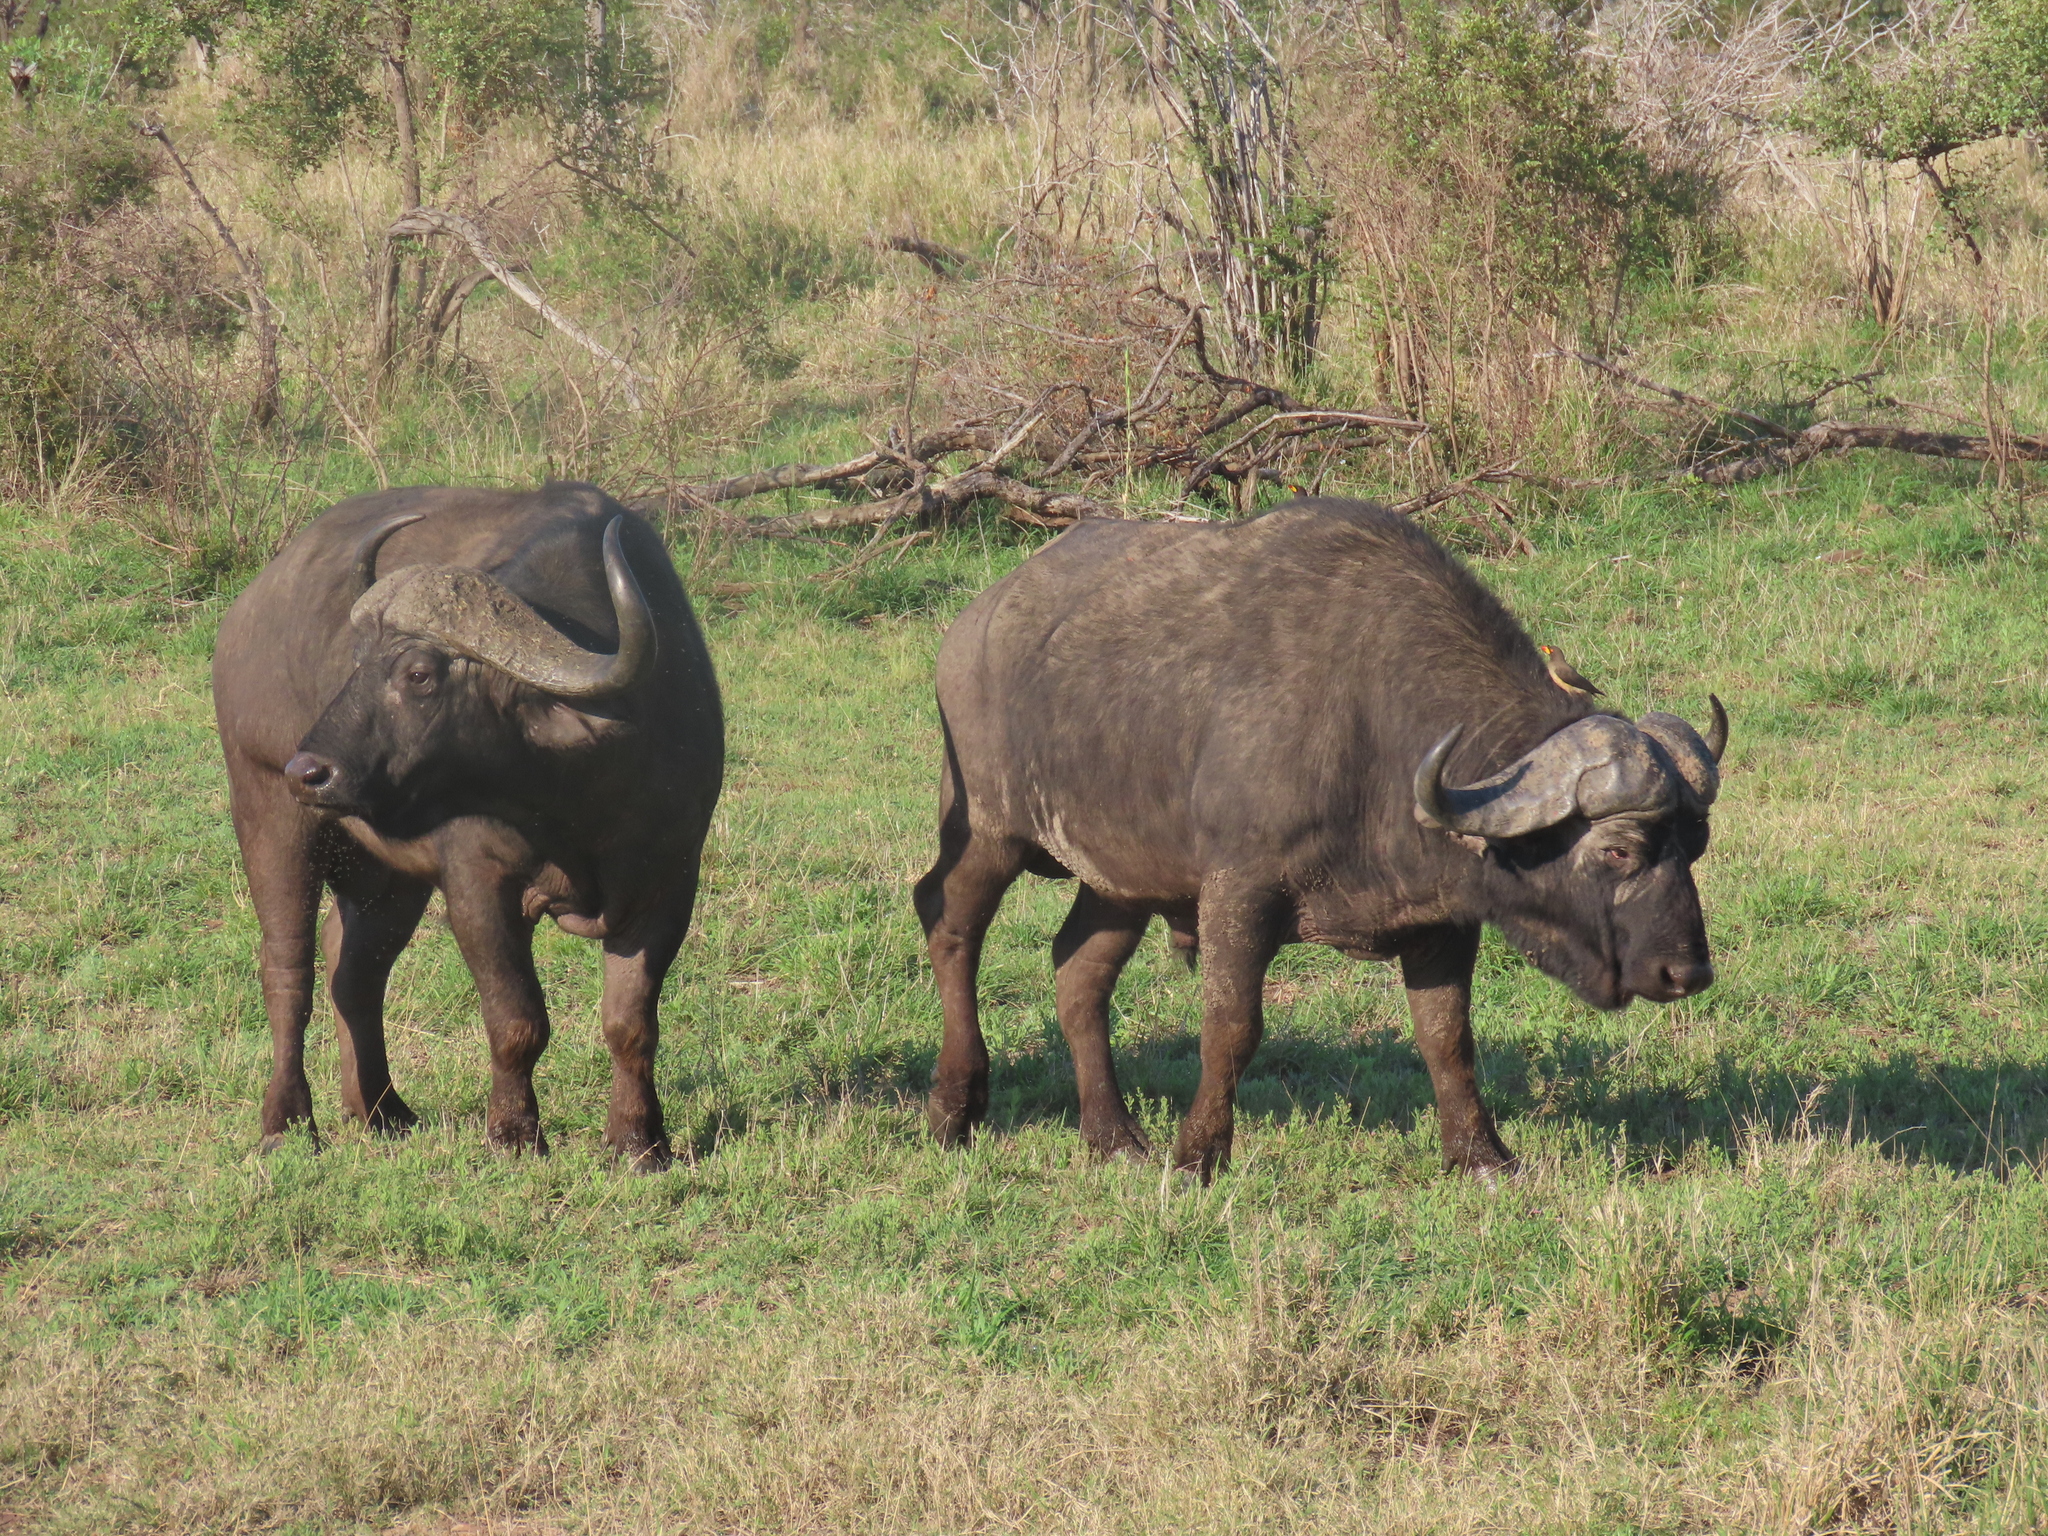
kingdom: Animalia
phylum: Chordata
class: Mammalia
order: Artiodactyla
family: Bovidae
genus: Syncerus
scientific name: Syncerus caffer
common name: African buffalo
